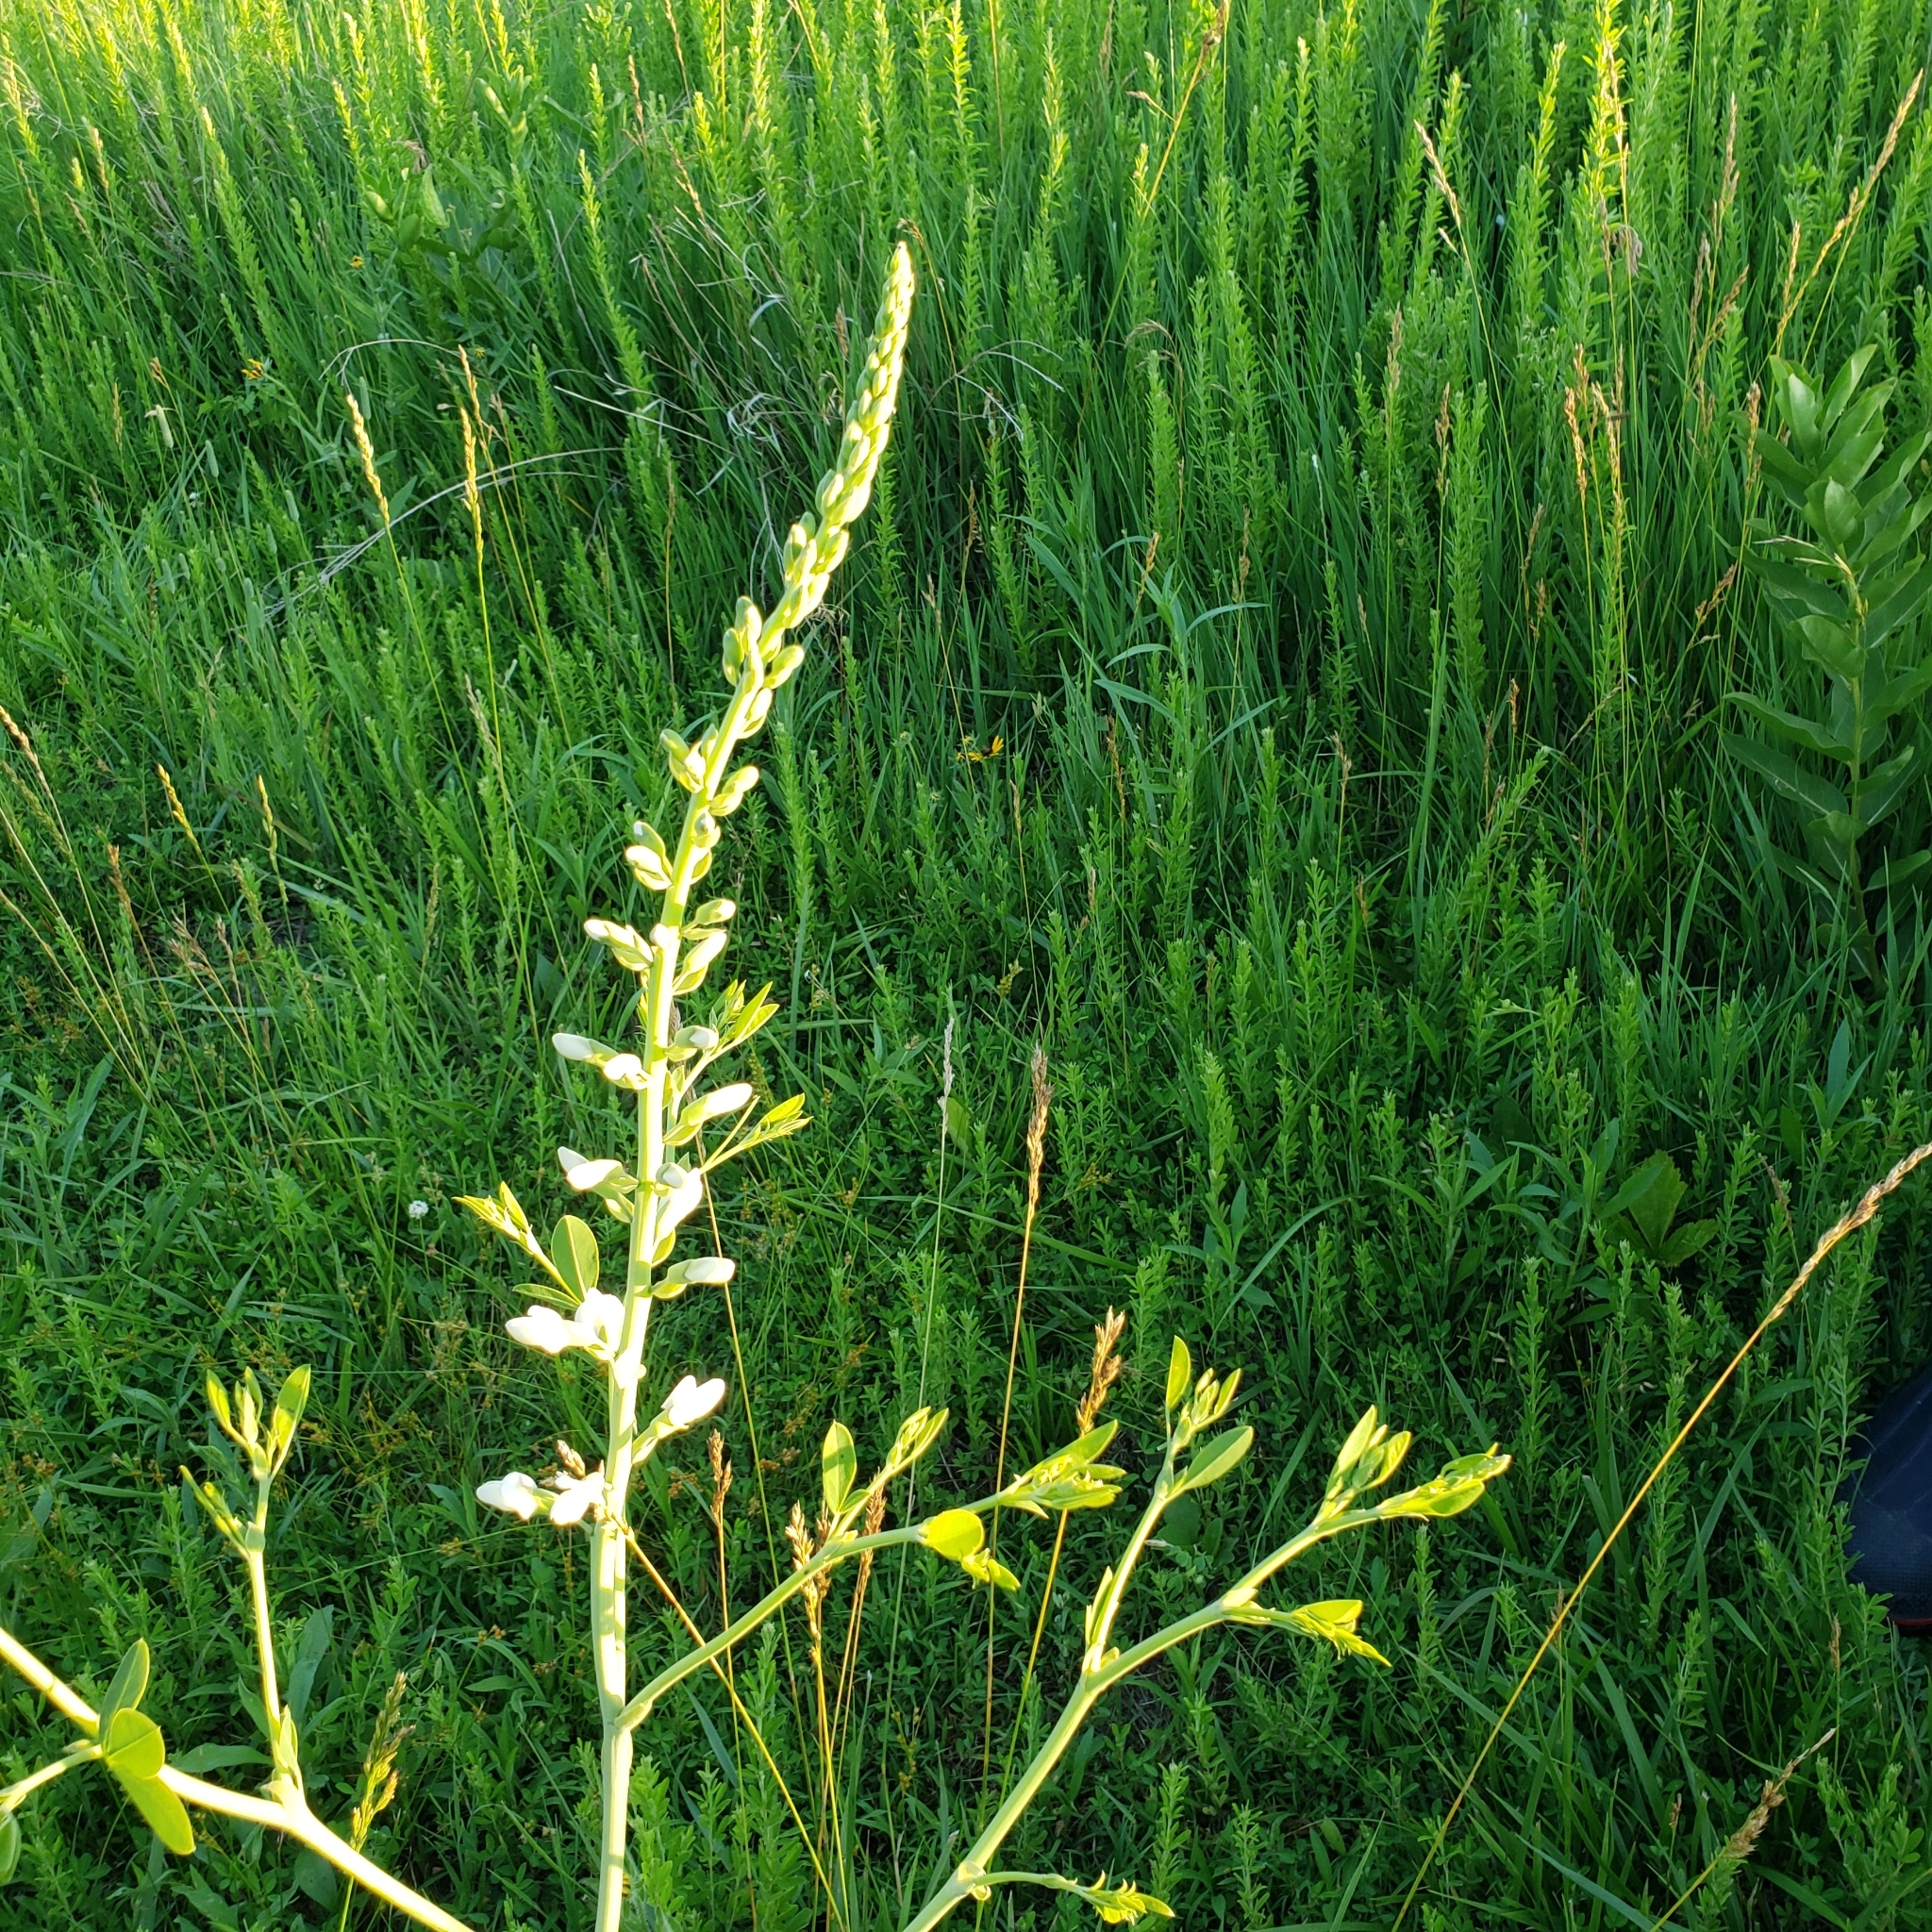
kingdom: Plantae
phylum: Tracheophyta
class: Magnoliopsida
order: Fabales
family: Fabaceae
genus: Baptisia
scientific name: Baptisia alba
